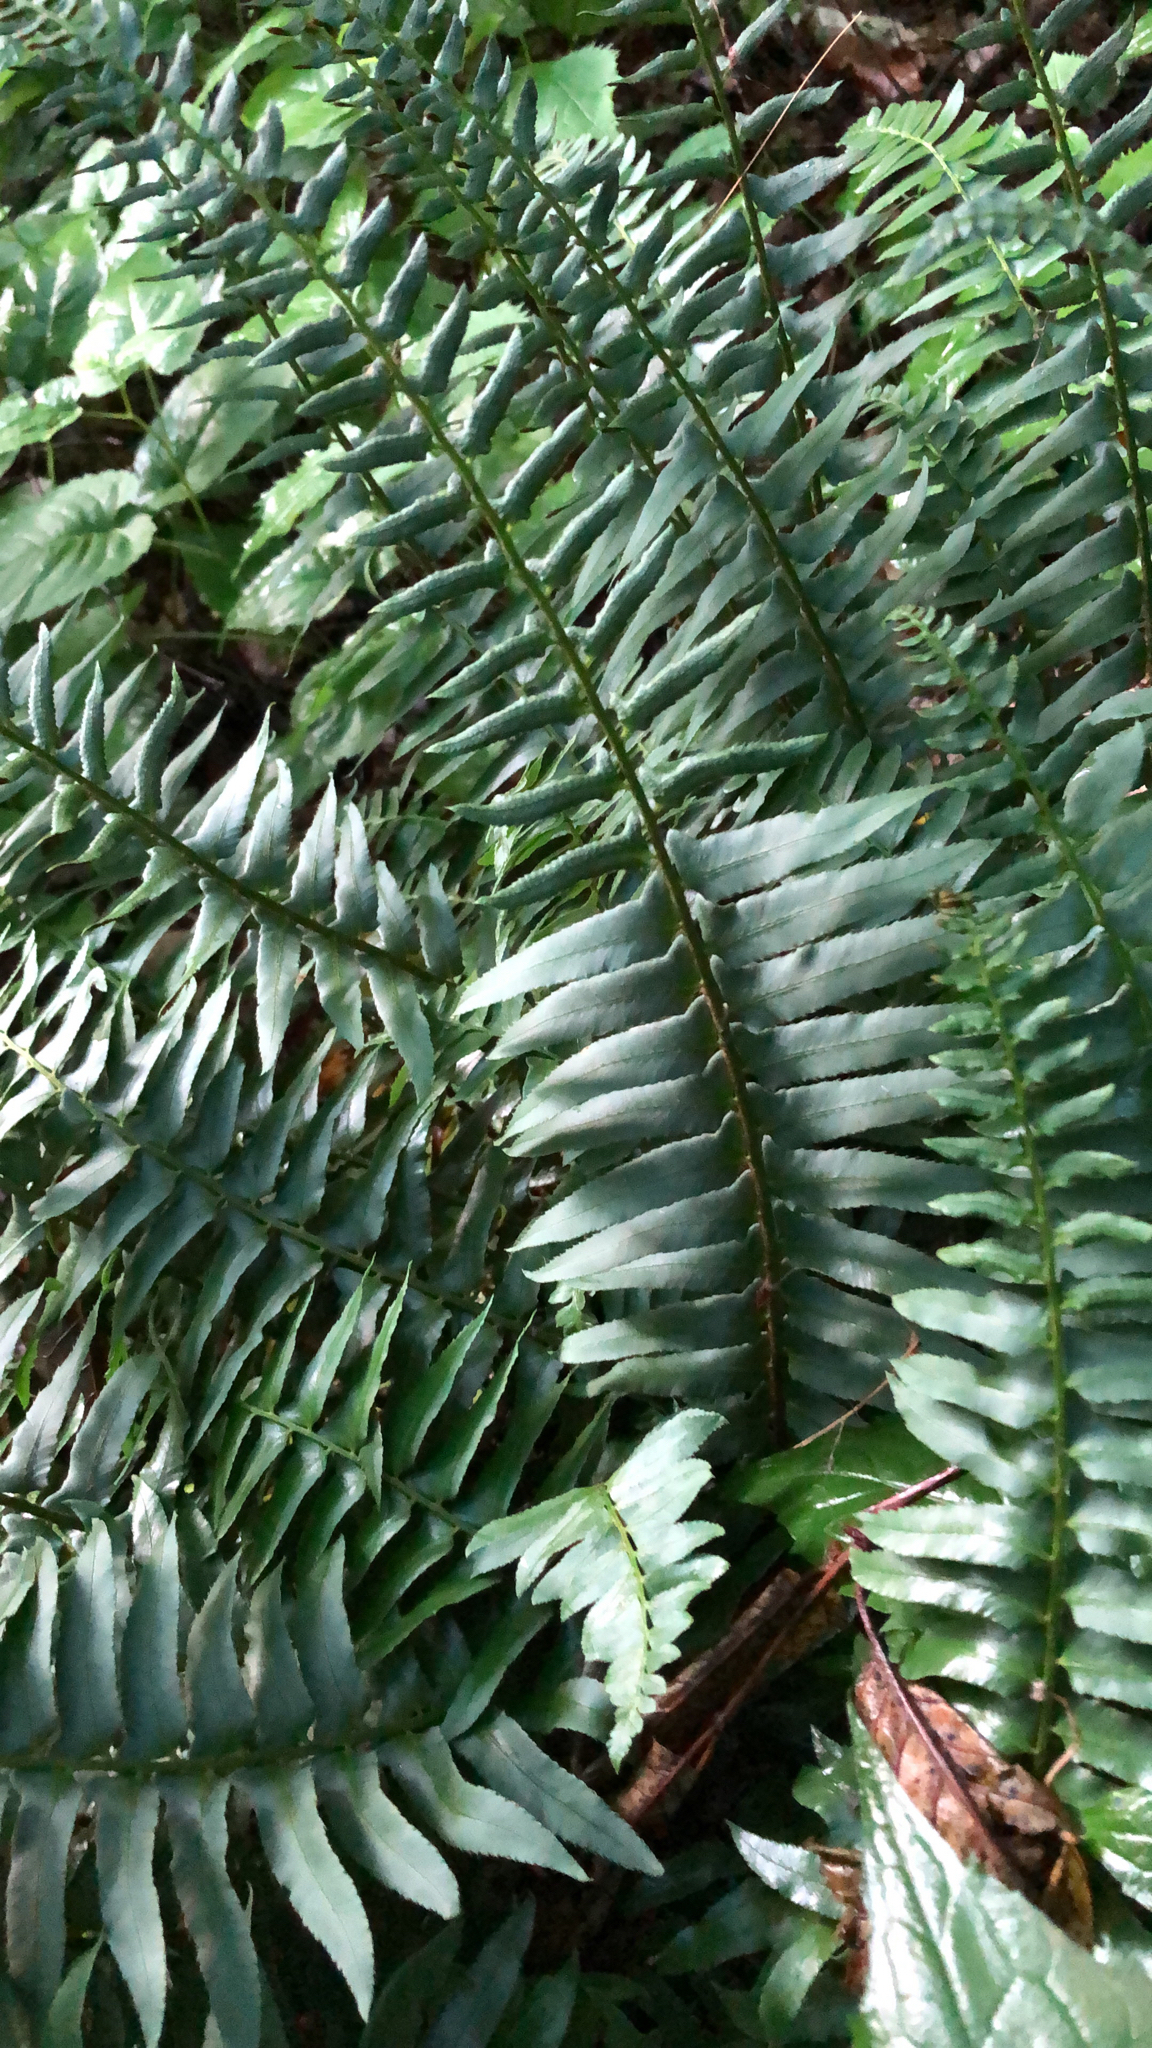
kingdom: Plantae
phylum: Tracheophyta
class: Polypodiopsida
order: Polypodiales
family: Dryopteridaceae
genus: Polystichum
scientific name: Polystichum acrostichoides
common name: Christmas fern
